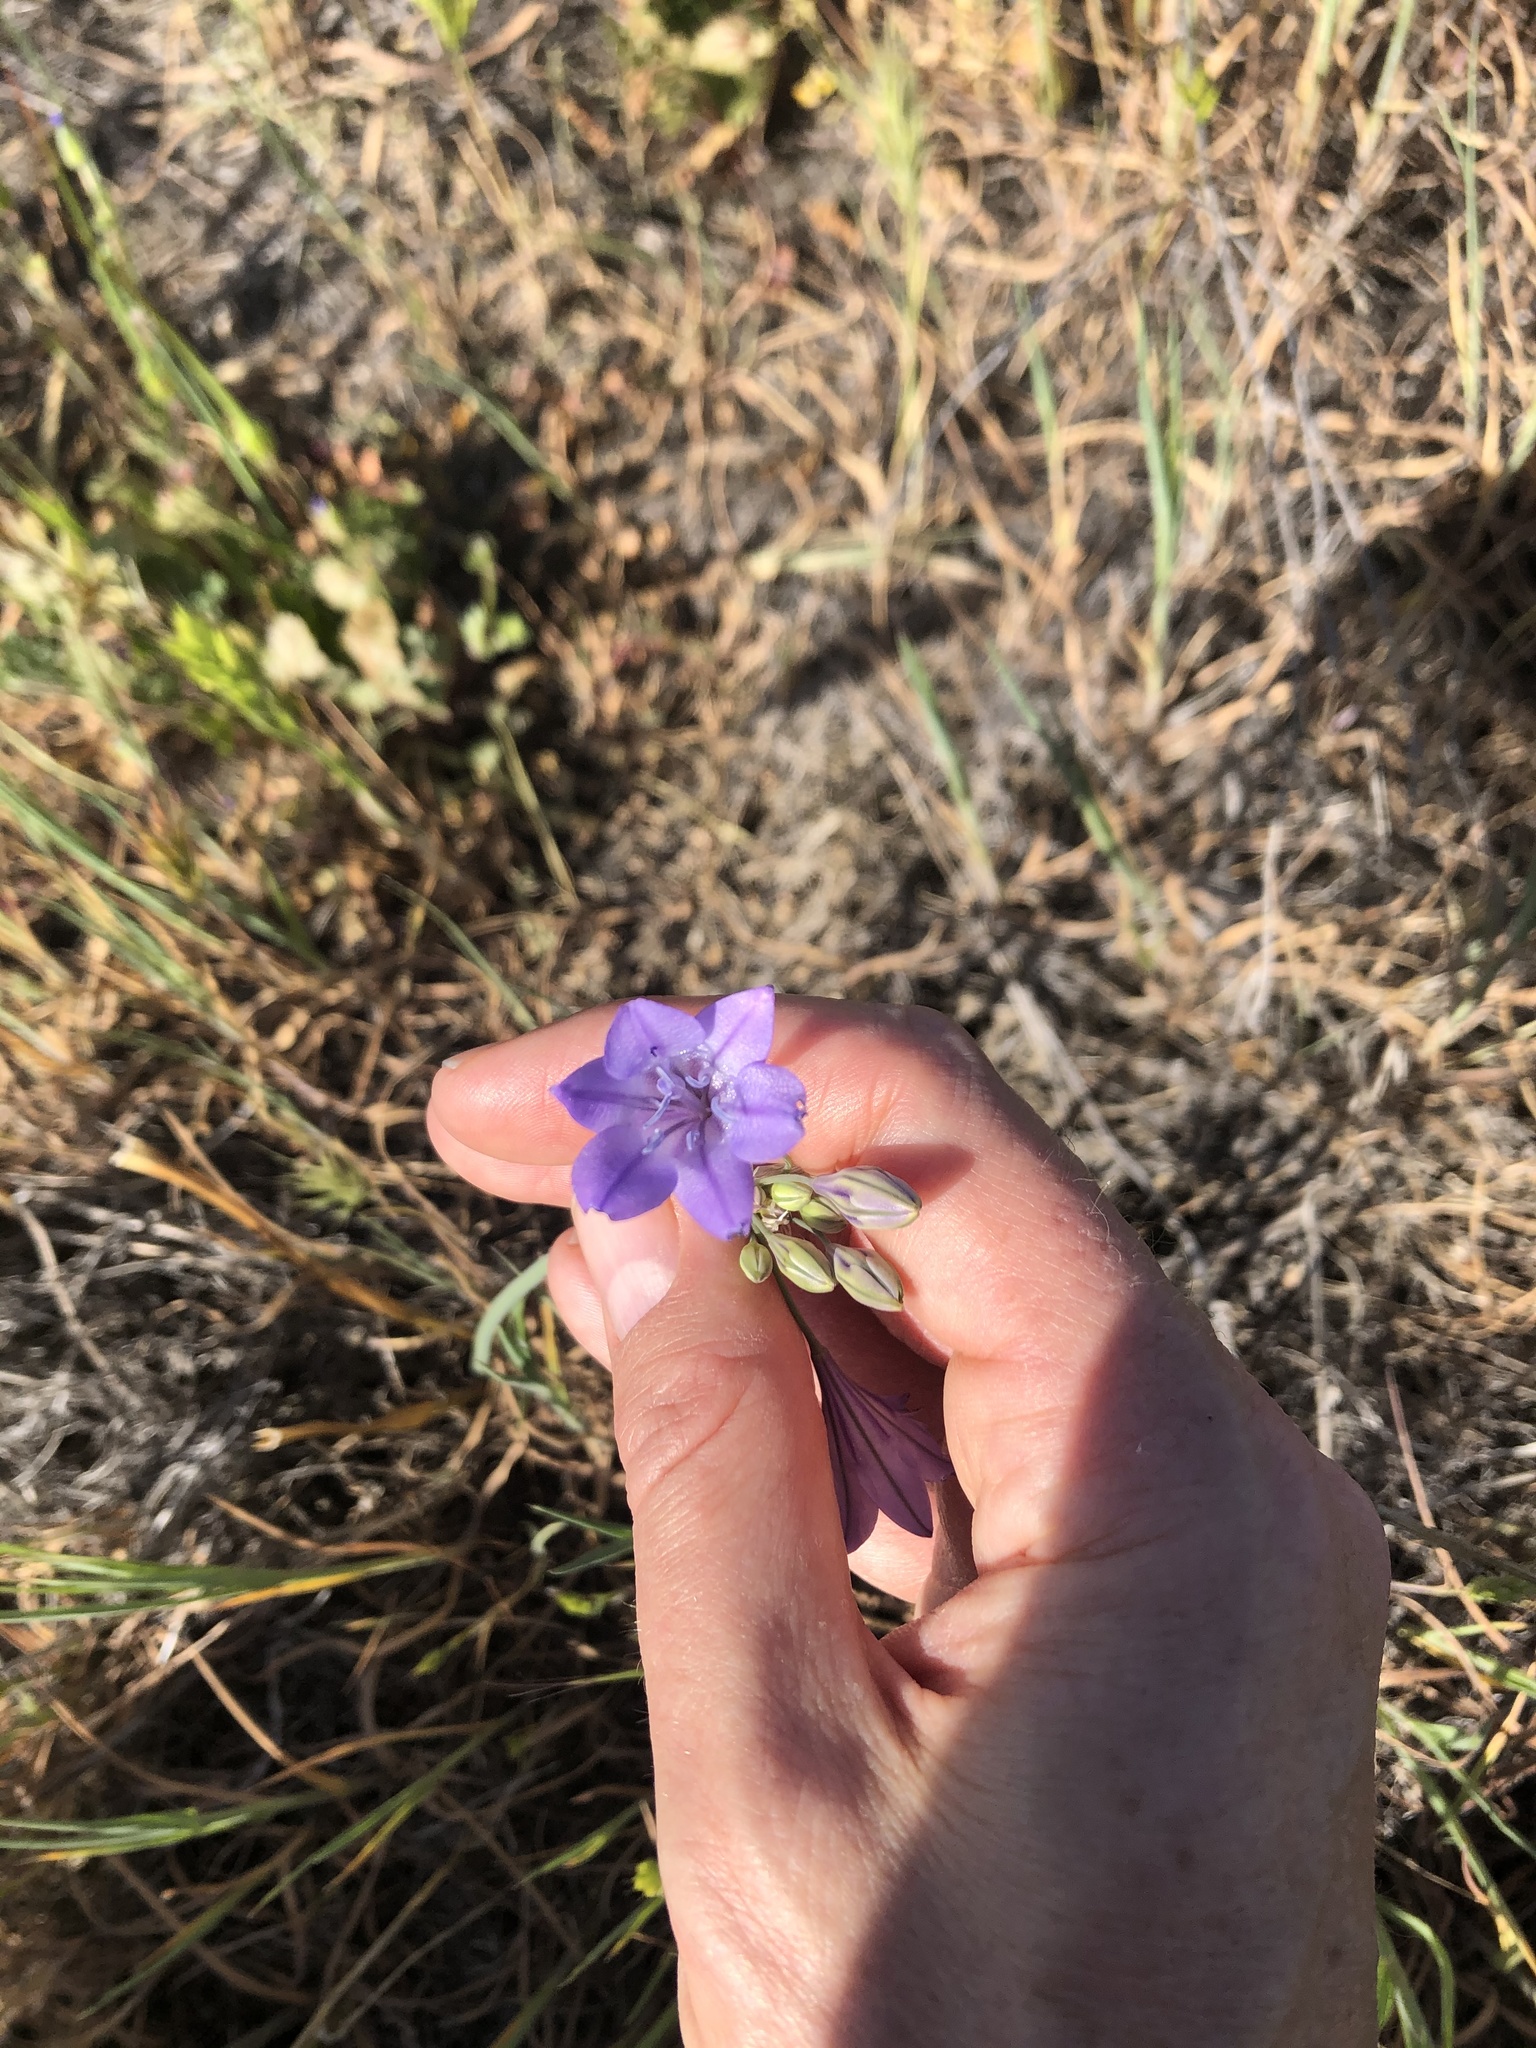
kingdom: Plantae
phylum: Tracheophyta
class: Liliopsida
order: Asparagales
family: Asparagaceae
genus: Triteleia
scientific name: Triteleia laxa
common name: Triplet-lily
